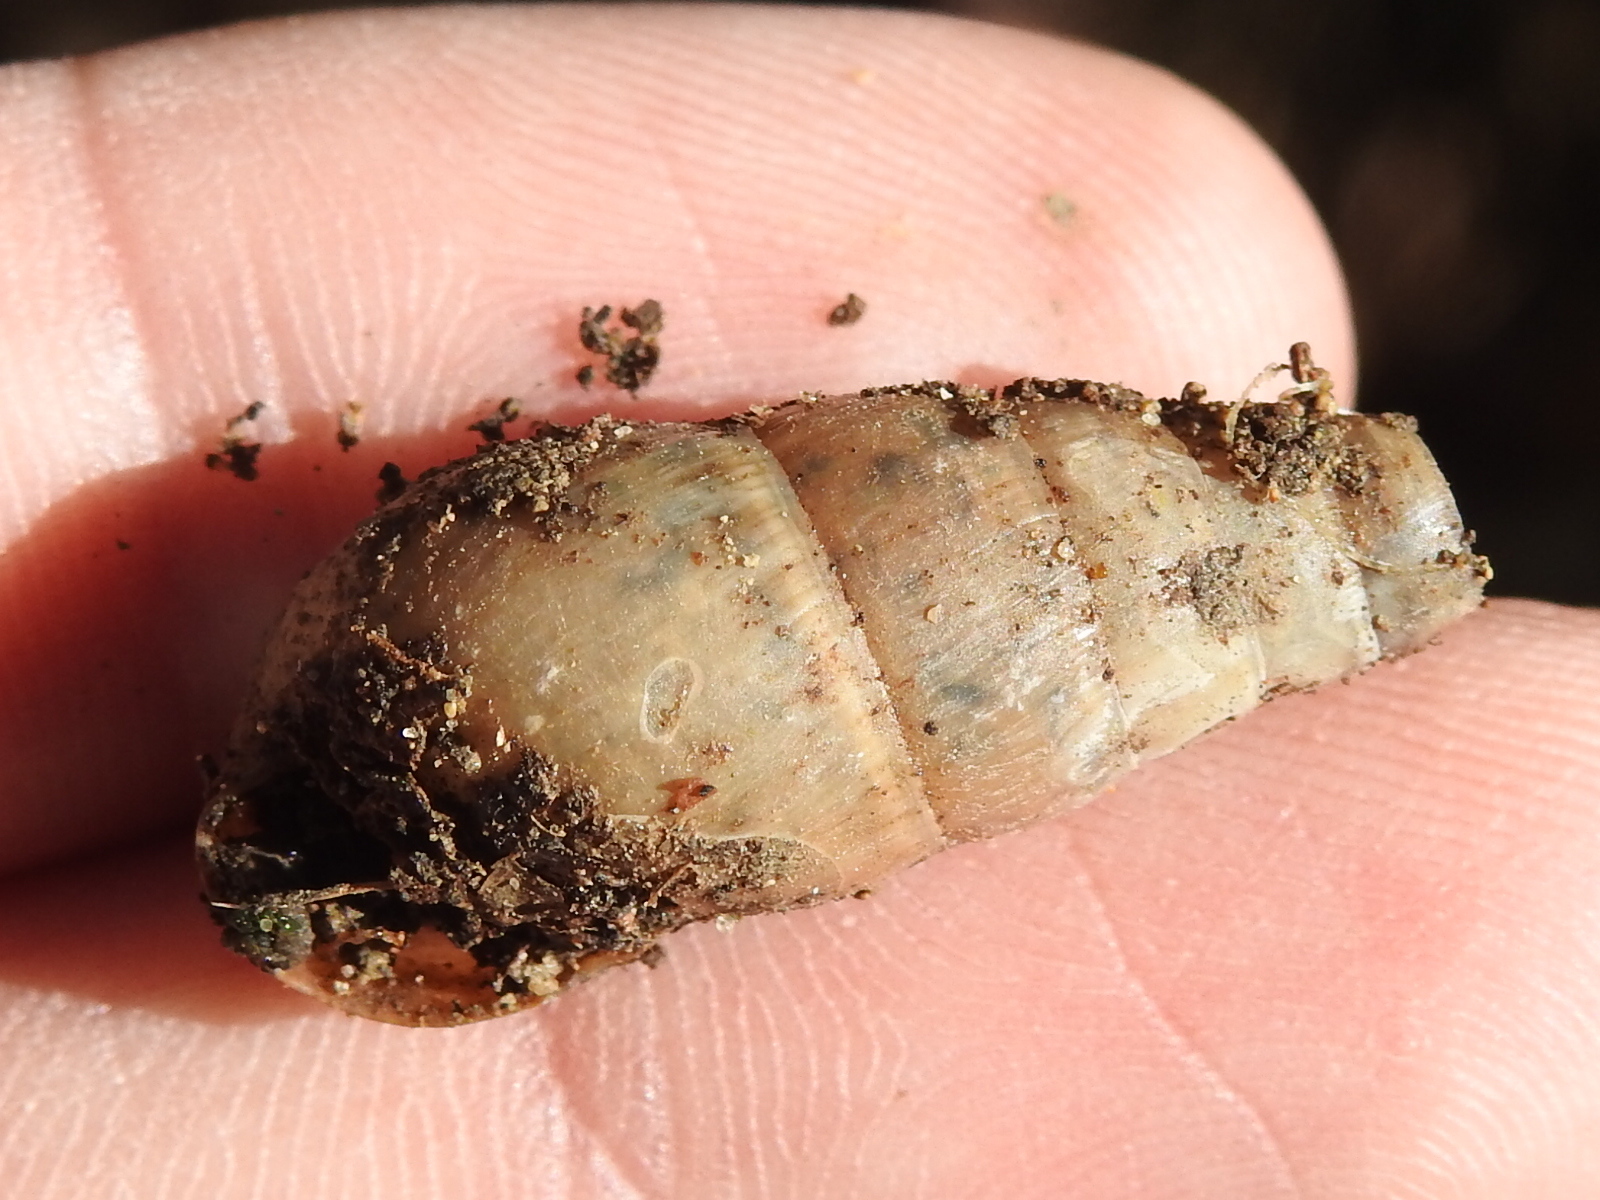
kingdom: Animalia
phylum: Mollusca
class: Gastropoda
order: Stylommatophora
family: Achatinidae
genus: Rumina
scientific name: Rumina decollata
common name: Decollate snail
